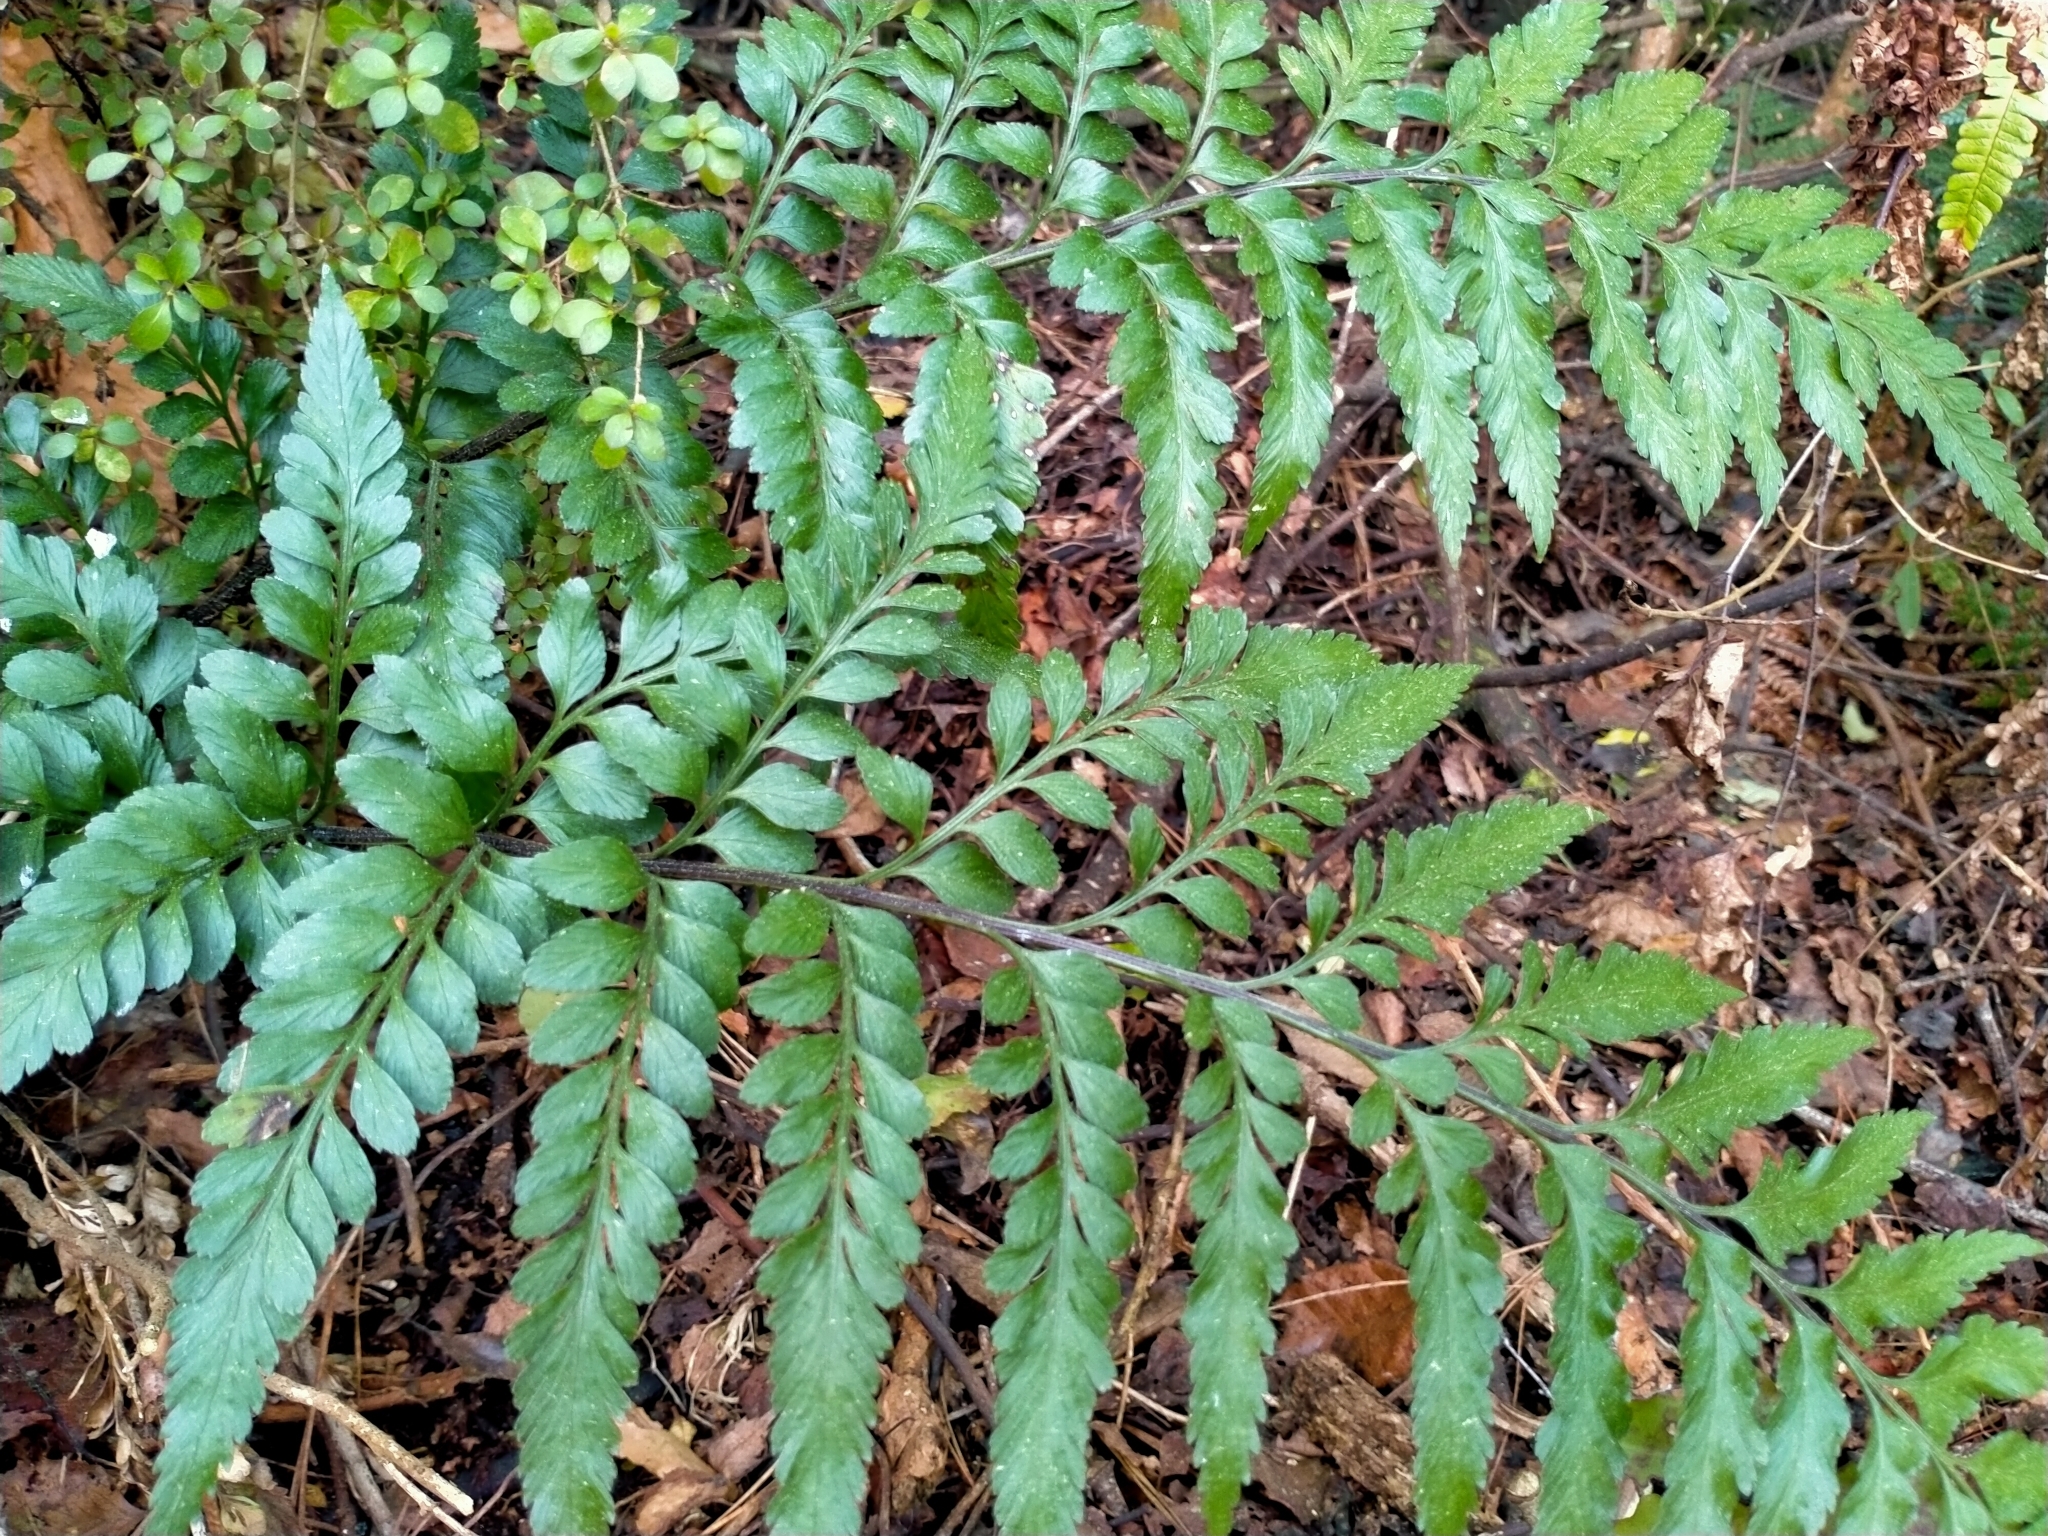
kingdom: Plantae
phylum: Tracheophyta
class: Polypodiopsida
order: Polypodiales
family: Aspleniaceae
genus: Asplenium
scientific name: Asplenium lyallii
